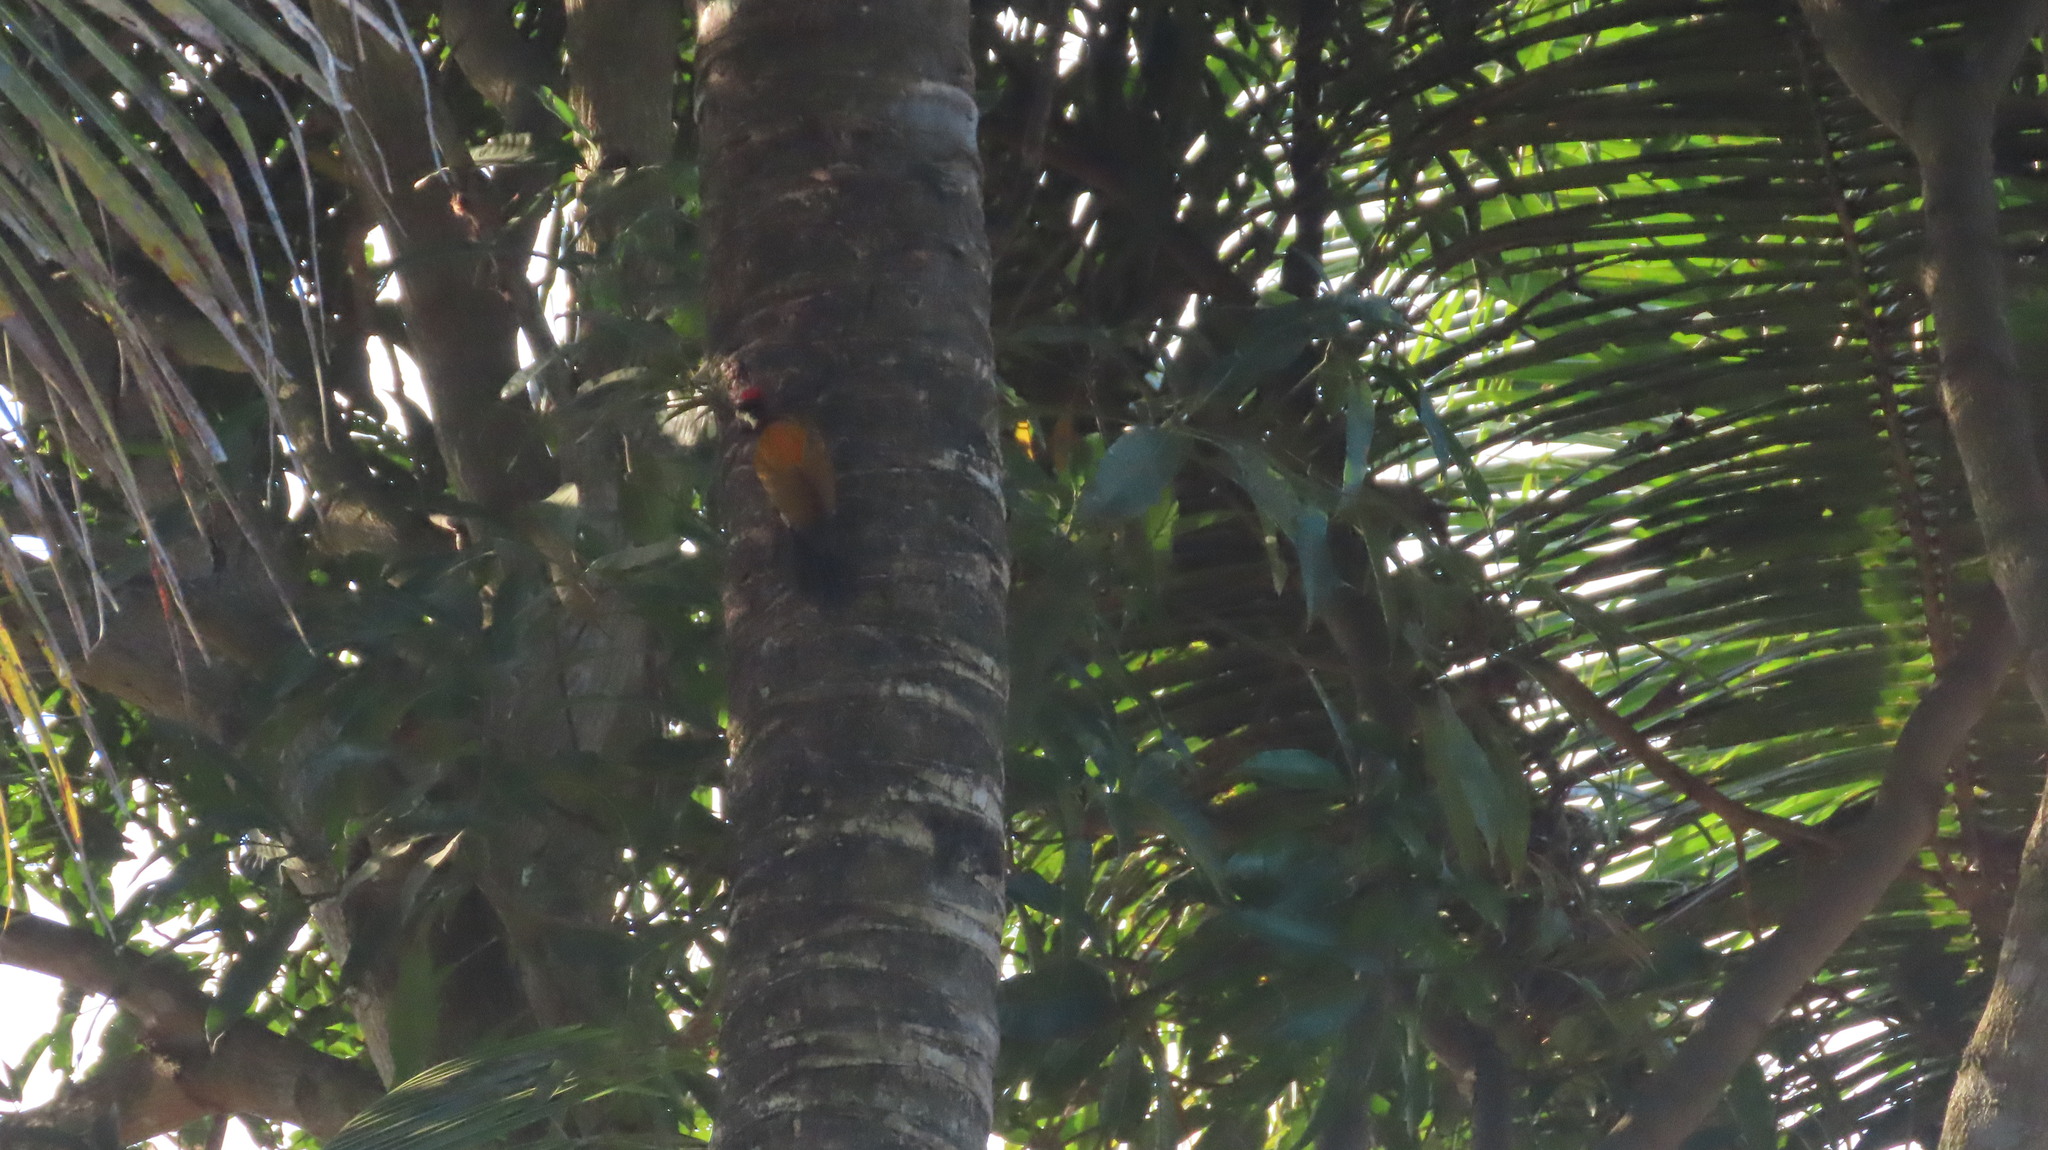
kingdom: Animalia
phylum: Chordata
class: Aves
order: Piciformes
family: Picidae
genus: Dinopium
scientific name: Dinopium benghalense
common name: Black-rumped flameback
